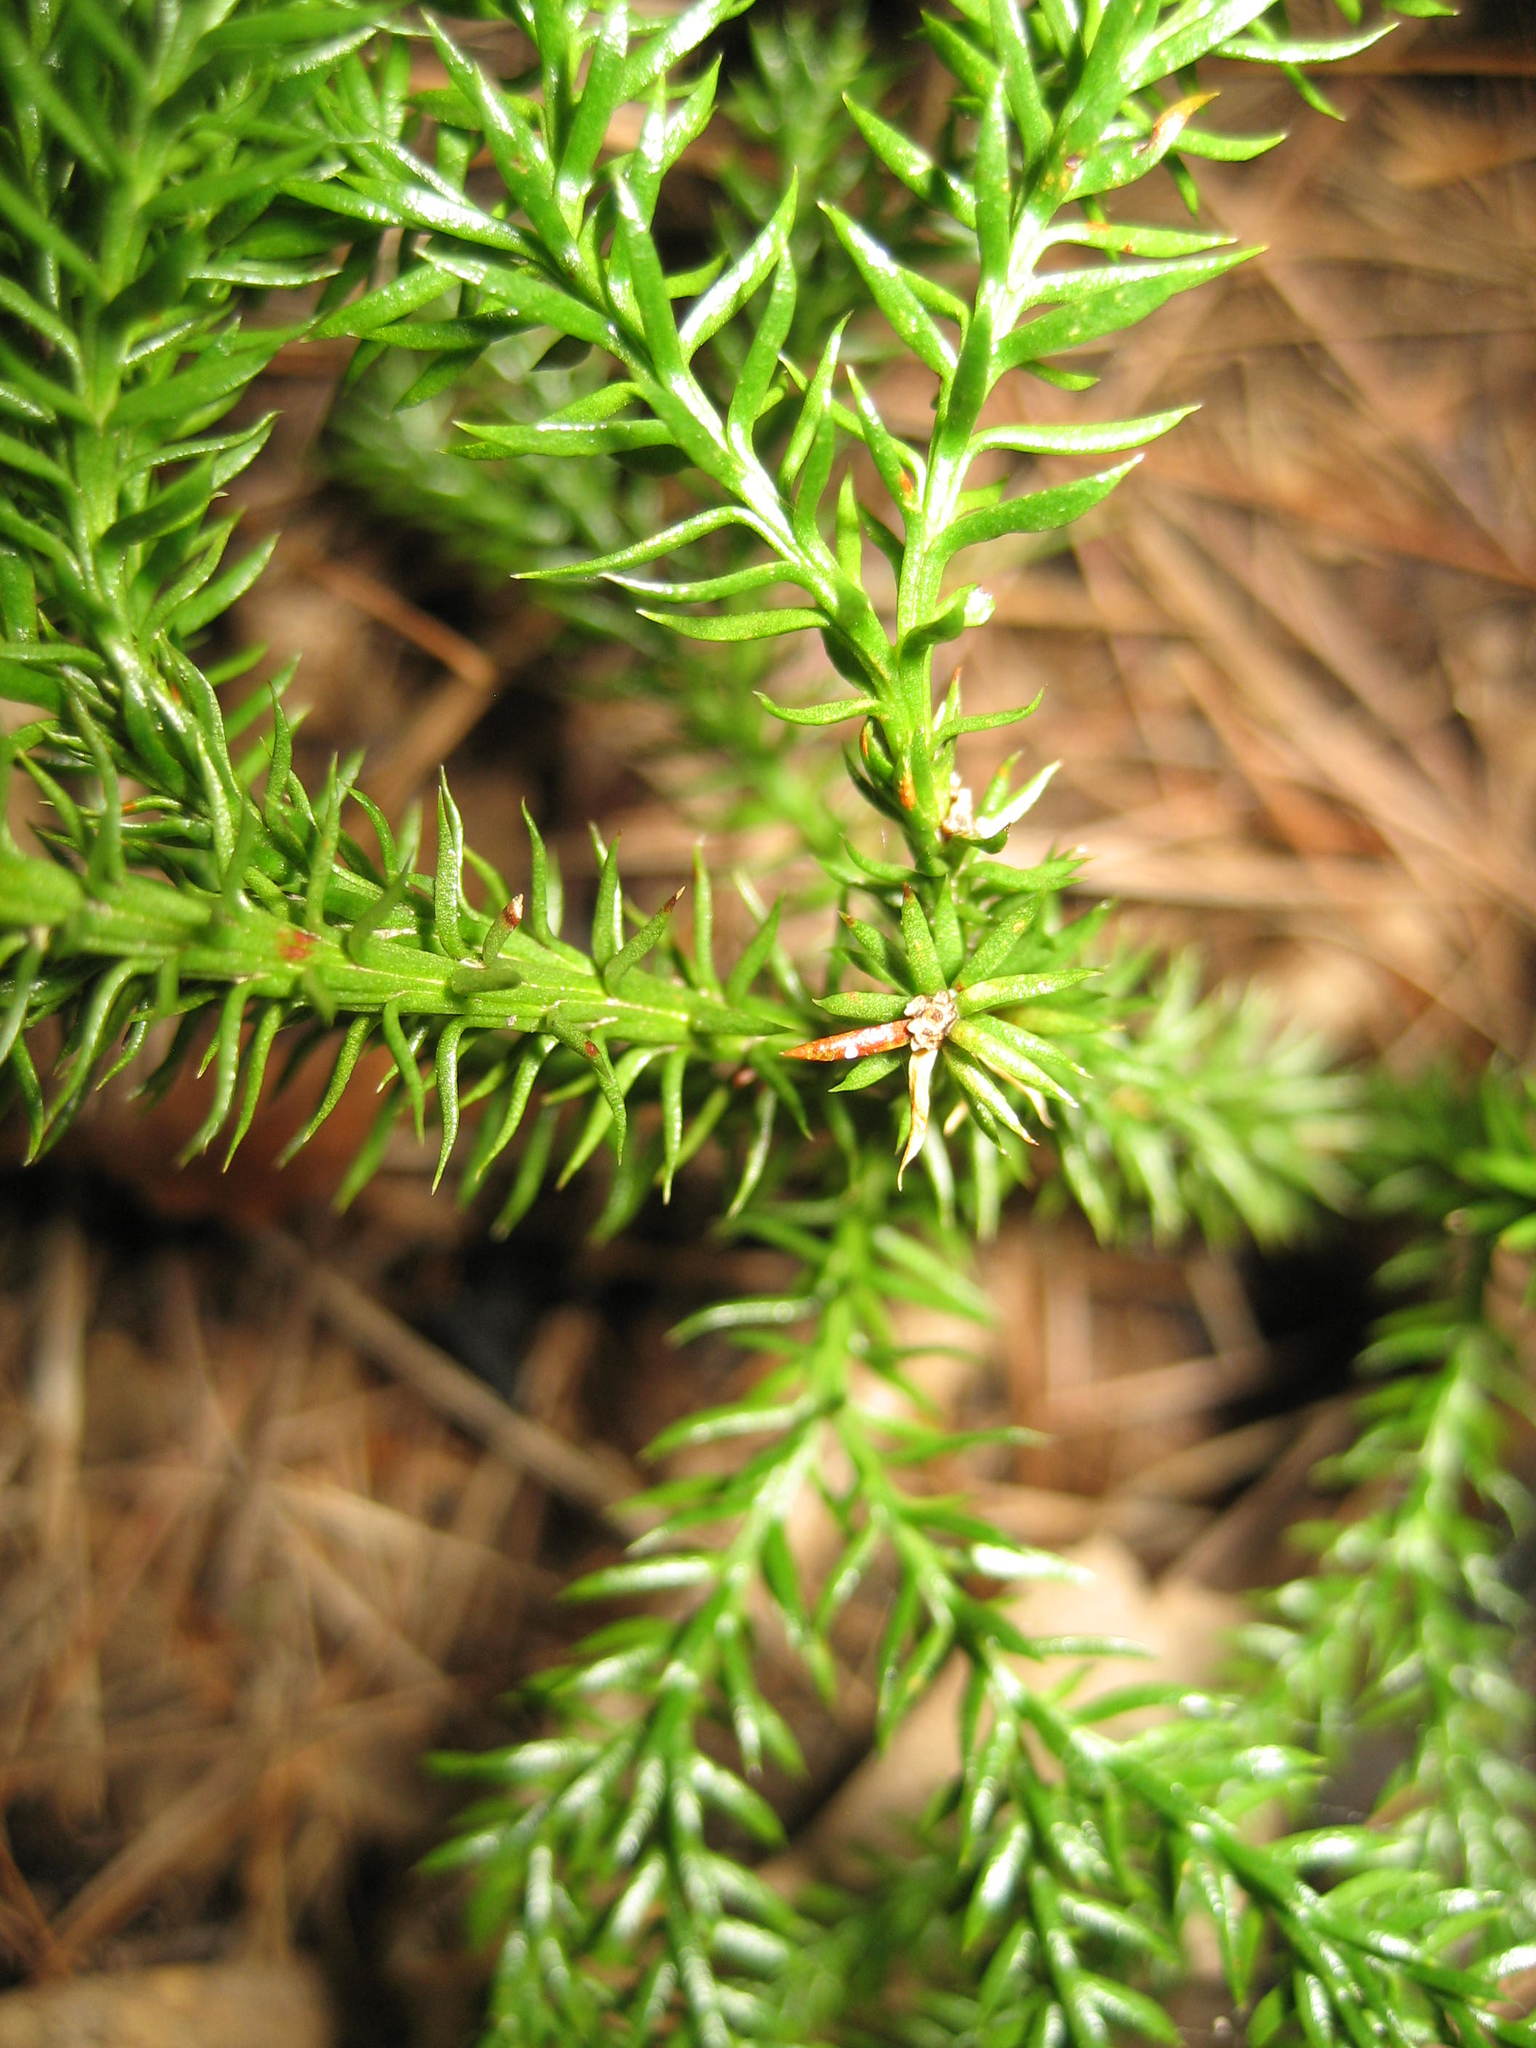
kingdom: Plantae
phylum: Tracheophyta
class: Lycopodiopsida
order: Lycopodiales
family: Lycopodiaceae
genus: Dendrolycopodium
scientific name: Dendrolycopodium dendroideum
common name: Northern tree-clubmoss
